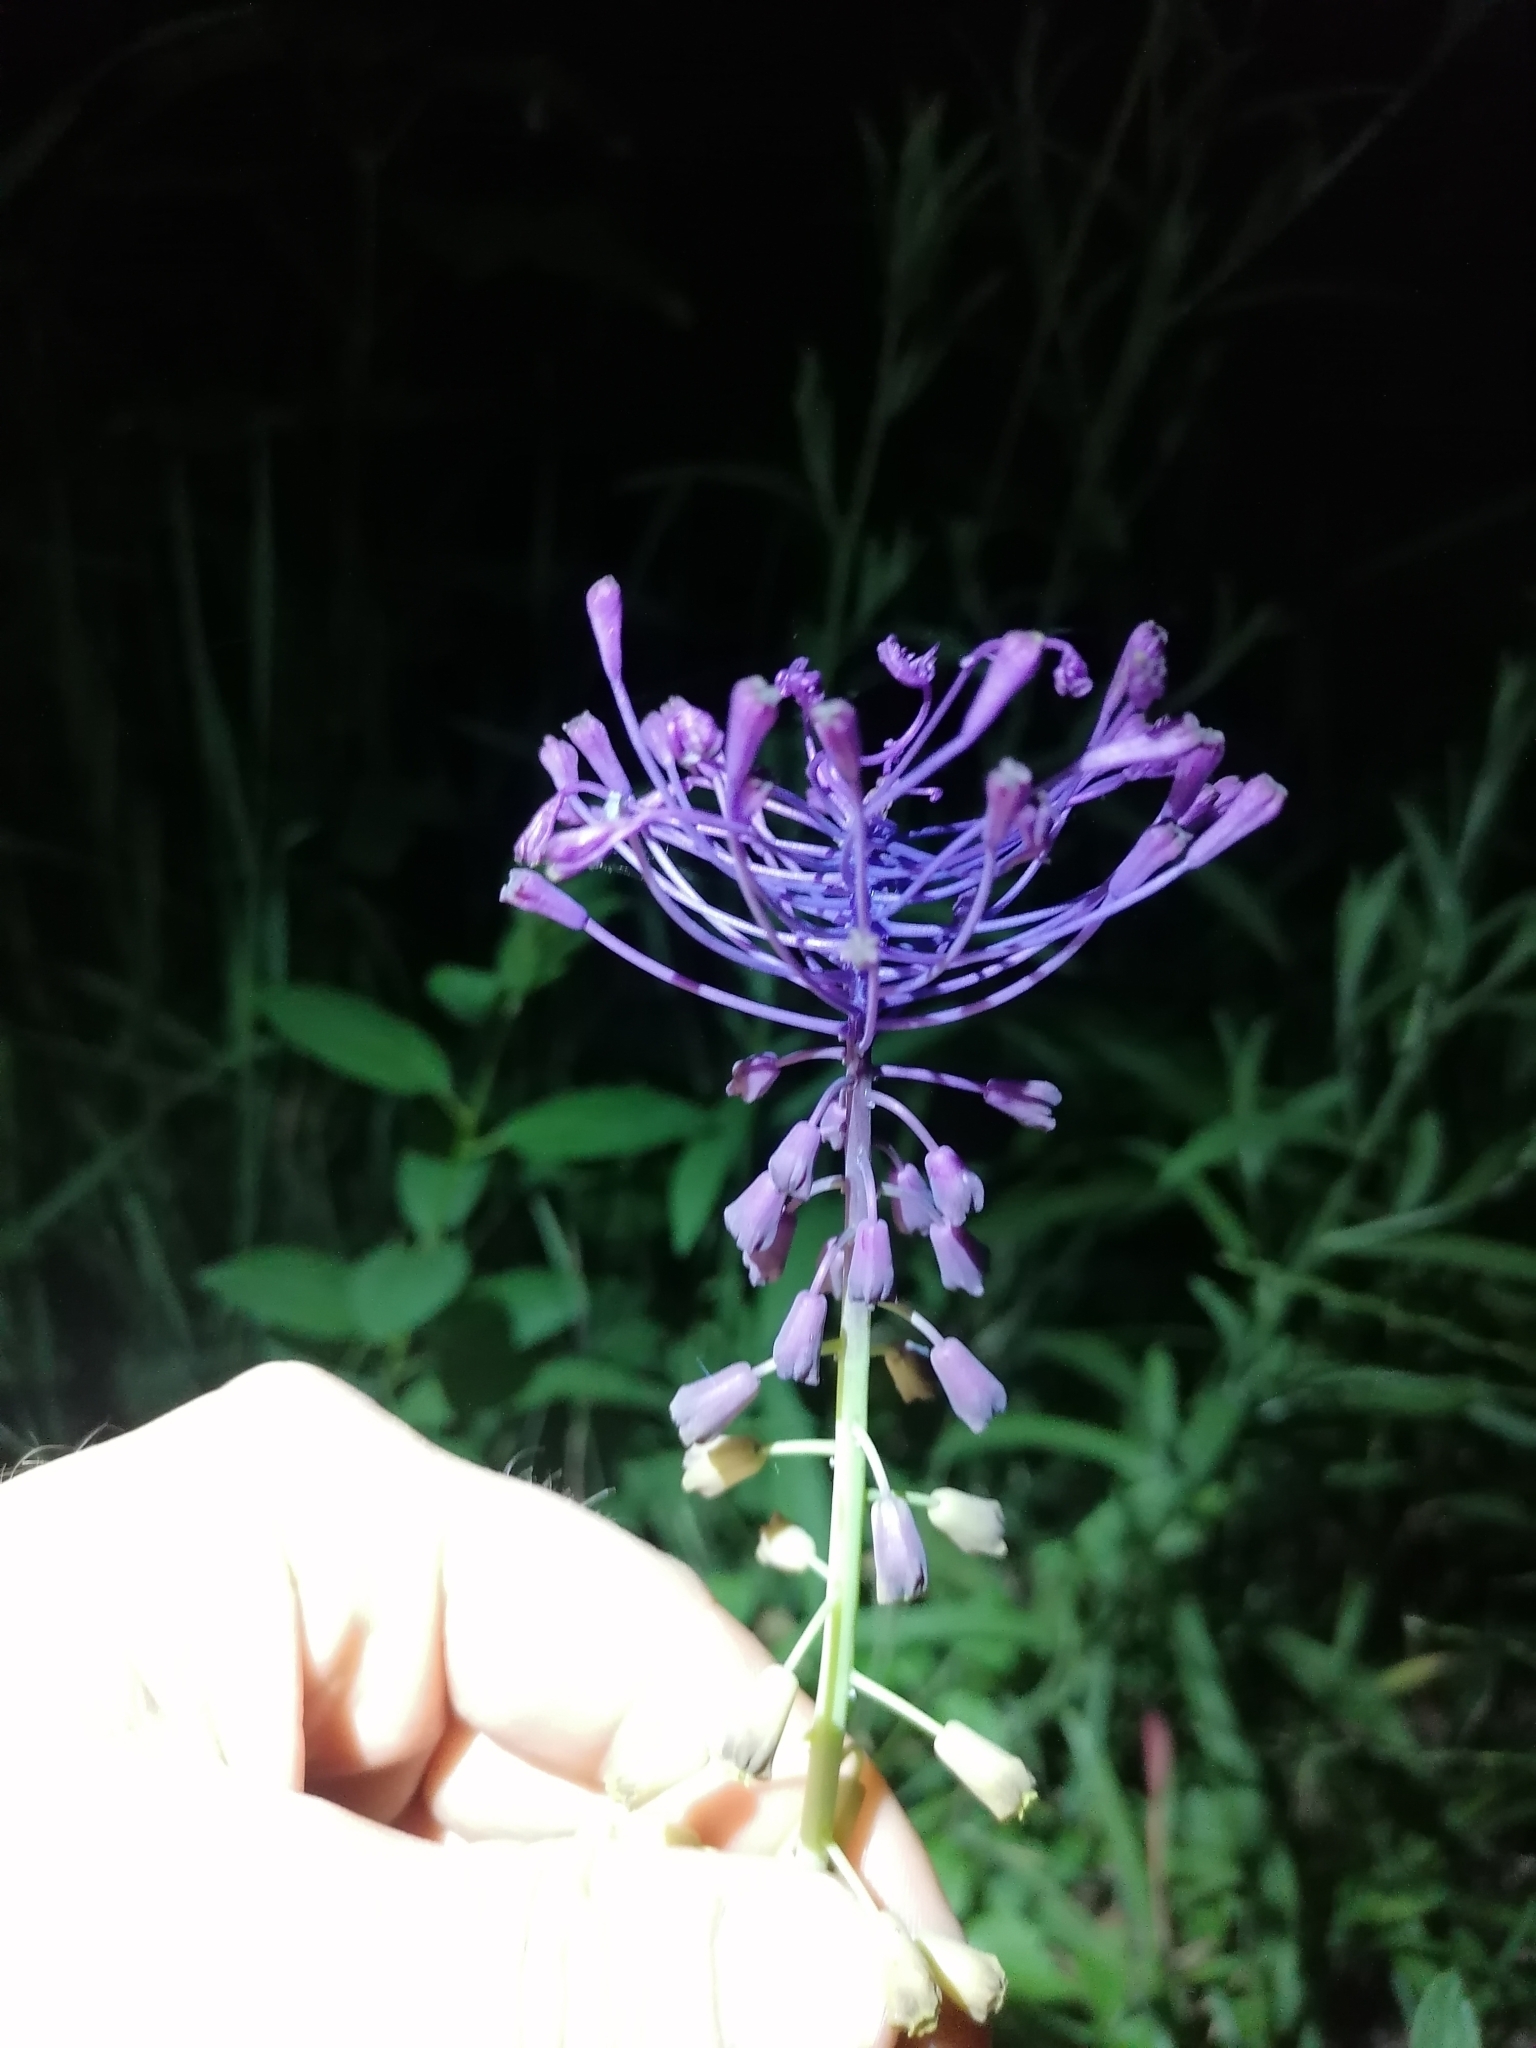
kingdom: Plantae
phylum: Tracheophyta
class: Liliopsida
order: Asparagales
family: Asparagaceae
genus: Muscari
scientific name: Muscari comosum
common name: Tassel hyacinth
